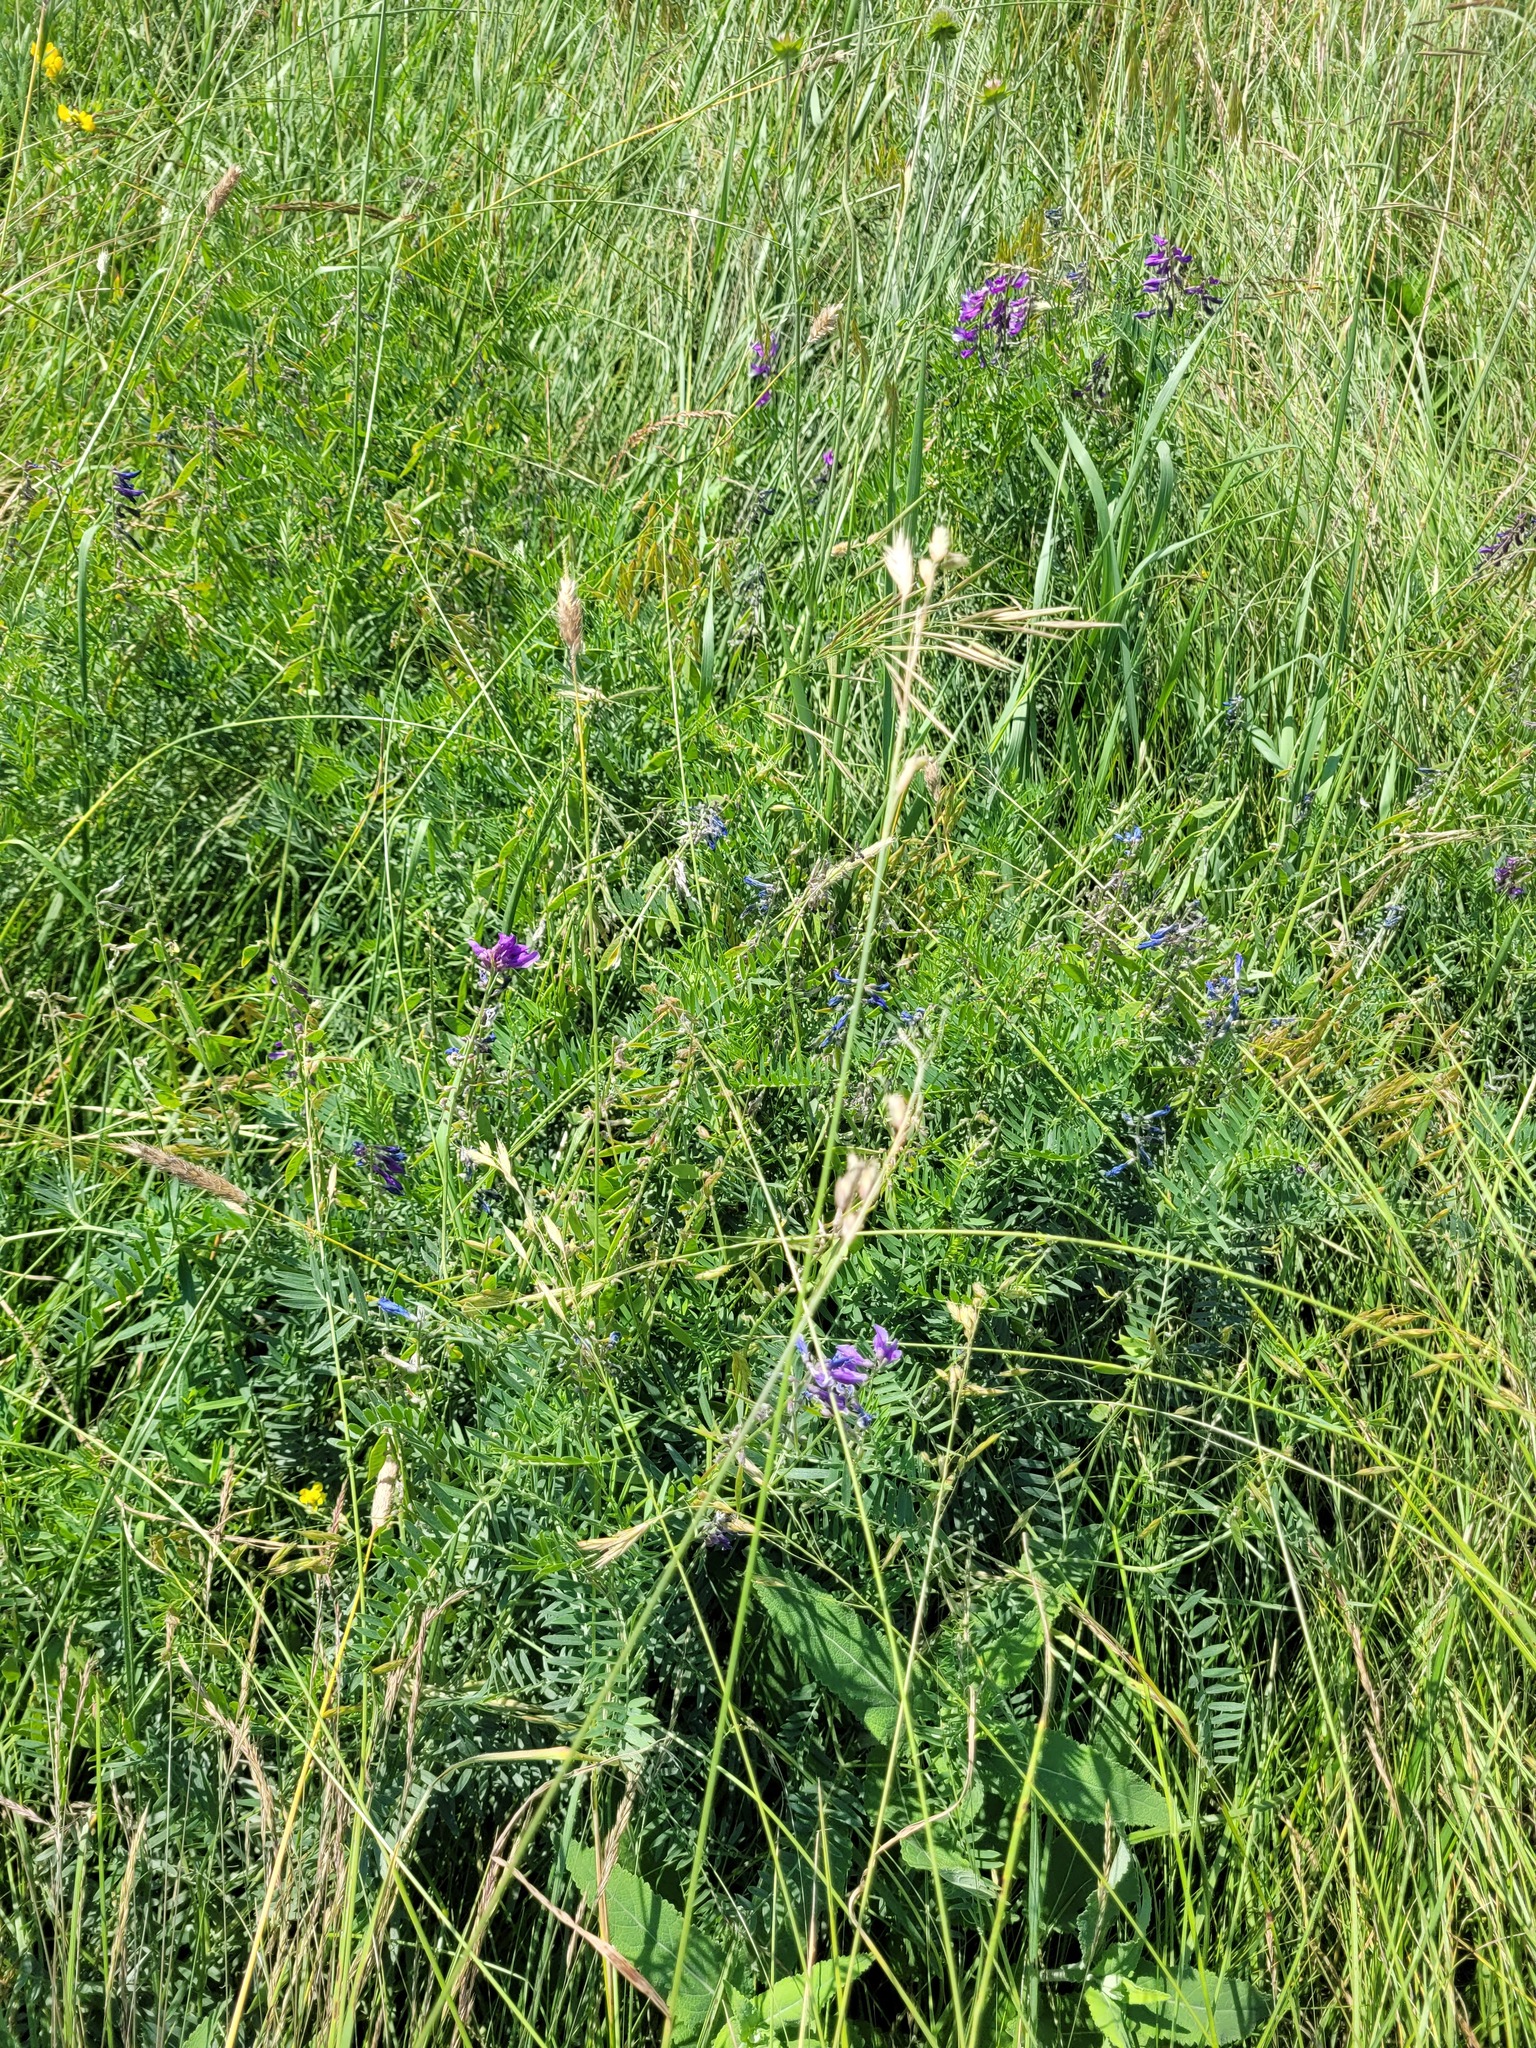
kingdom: Plantae
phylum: Tracheophyta
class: Magnoliopsida
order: Fabales
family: Fabaceae
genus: Vicia
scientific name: Vicia tenuifolia
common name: Fine-leaved vetch
